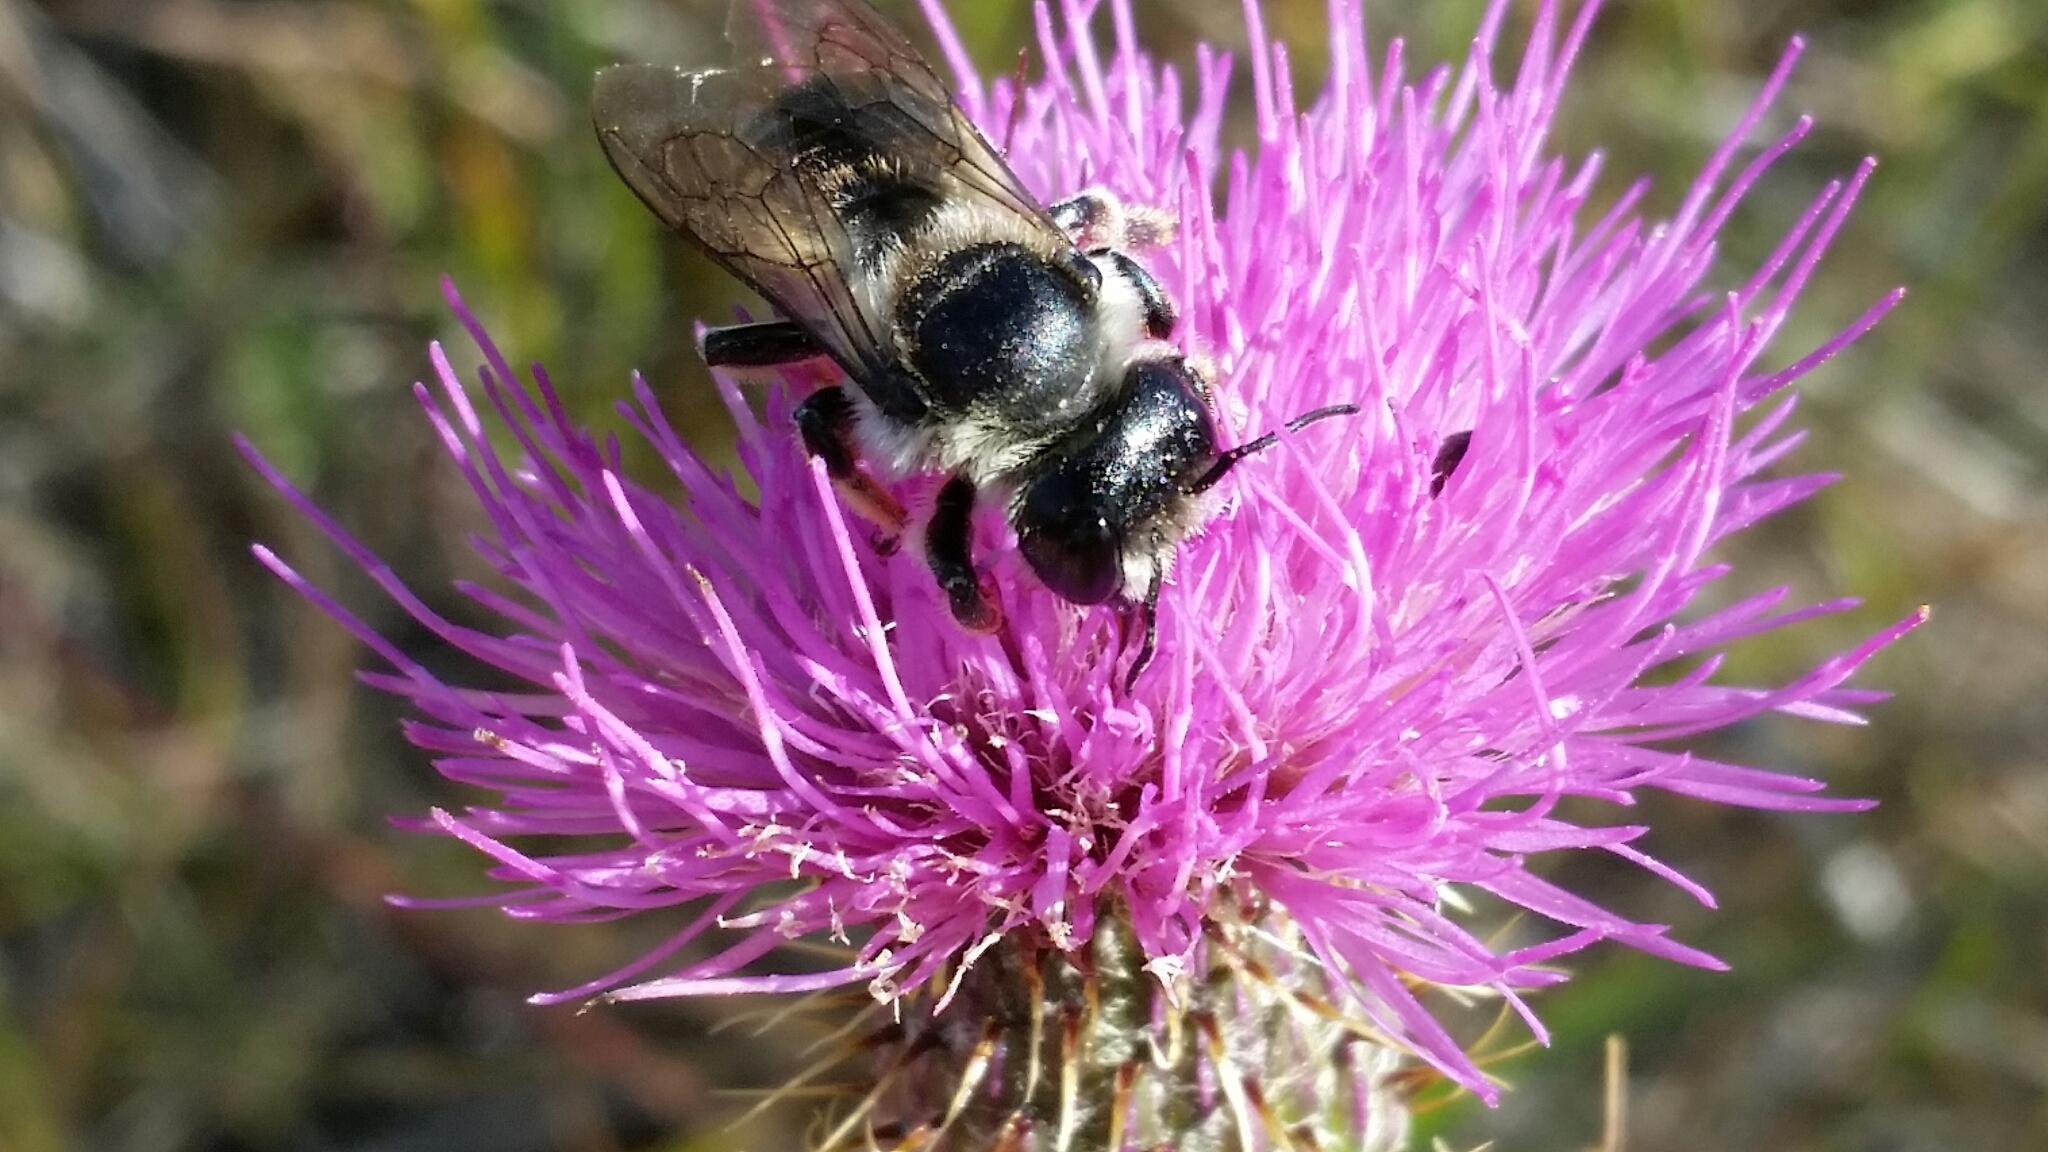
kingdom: Animalia
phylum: Arthropoda
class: Insecta
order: Hymenoptera
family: Megachilidae
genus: Megachile
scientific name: Megachile inermis
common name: Unarmed leafcutter bee
